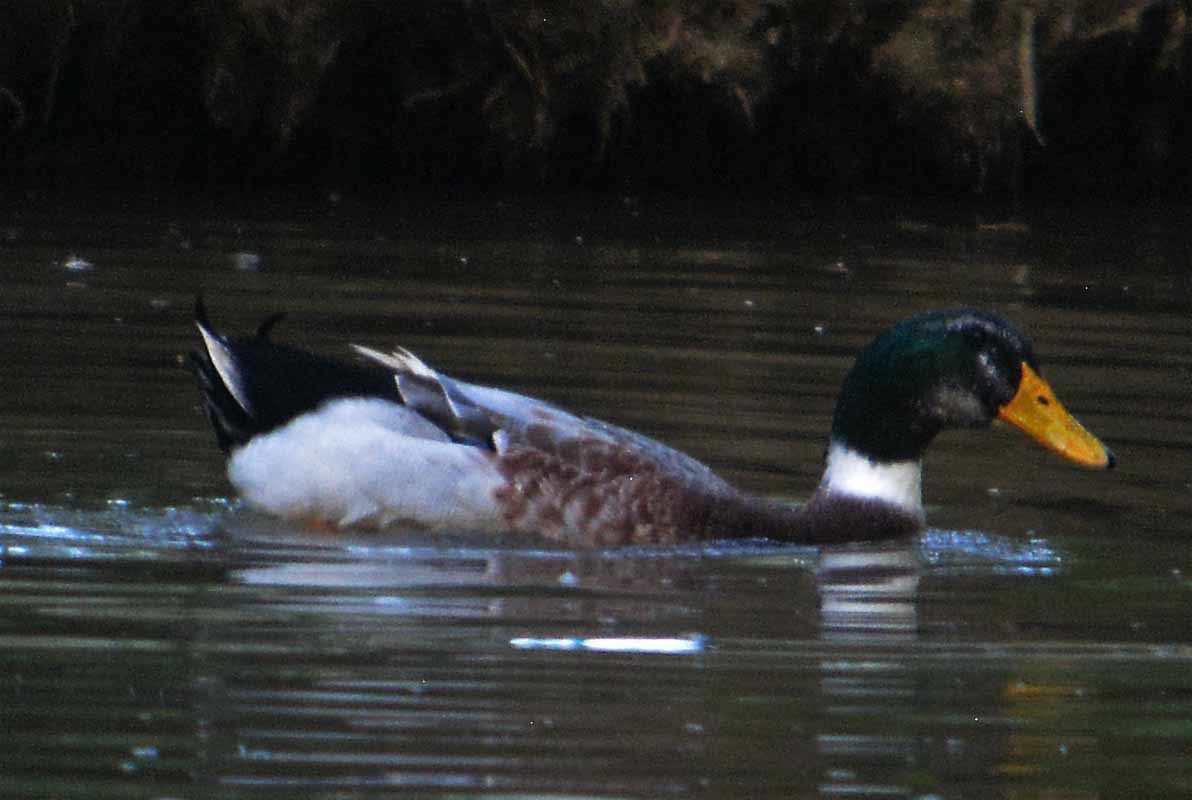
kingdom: Animalia
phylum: Chordata
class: Aves
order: Anseriformes
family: Anatidae
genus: Anas
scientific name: Anas platyrhynchos
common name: Mallard
